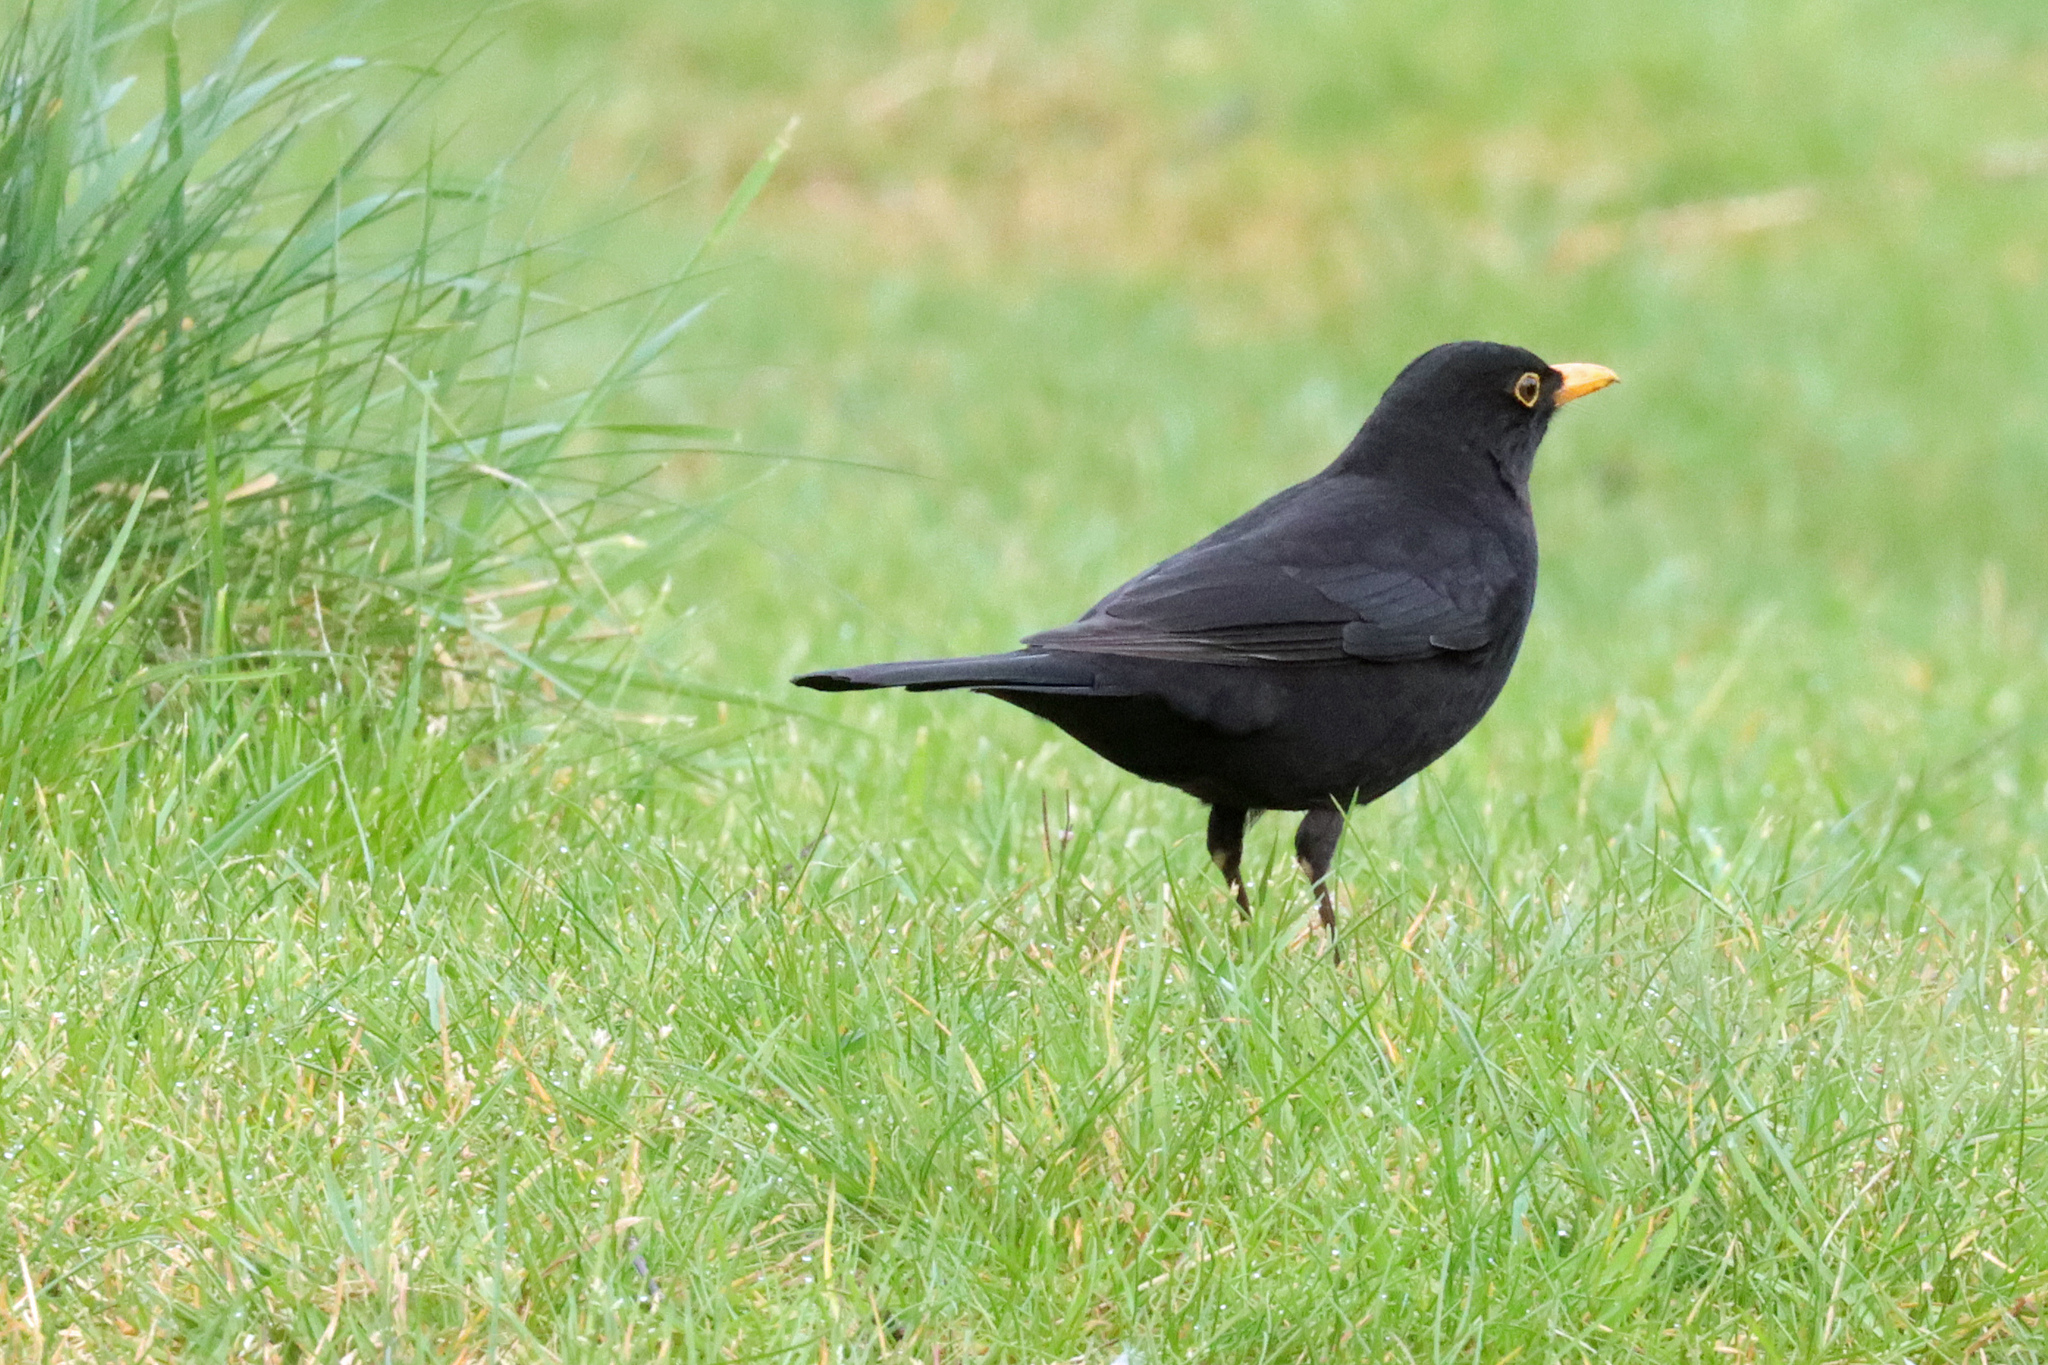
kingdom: Animalia
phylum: Chordata
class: Aves
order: Passeriformes
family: Turdidae
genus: Turdus
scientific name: Turdus merula
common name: Common blackbird
